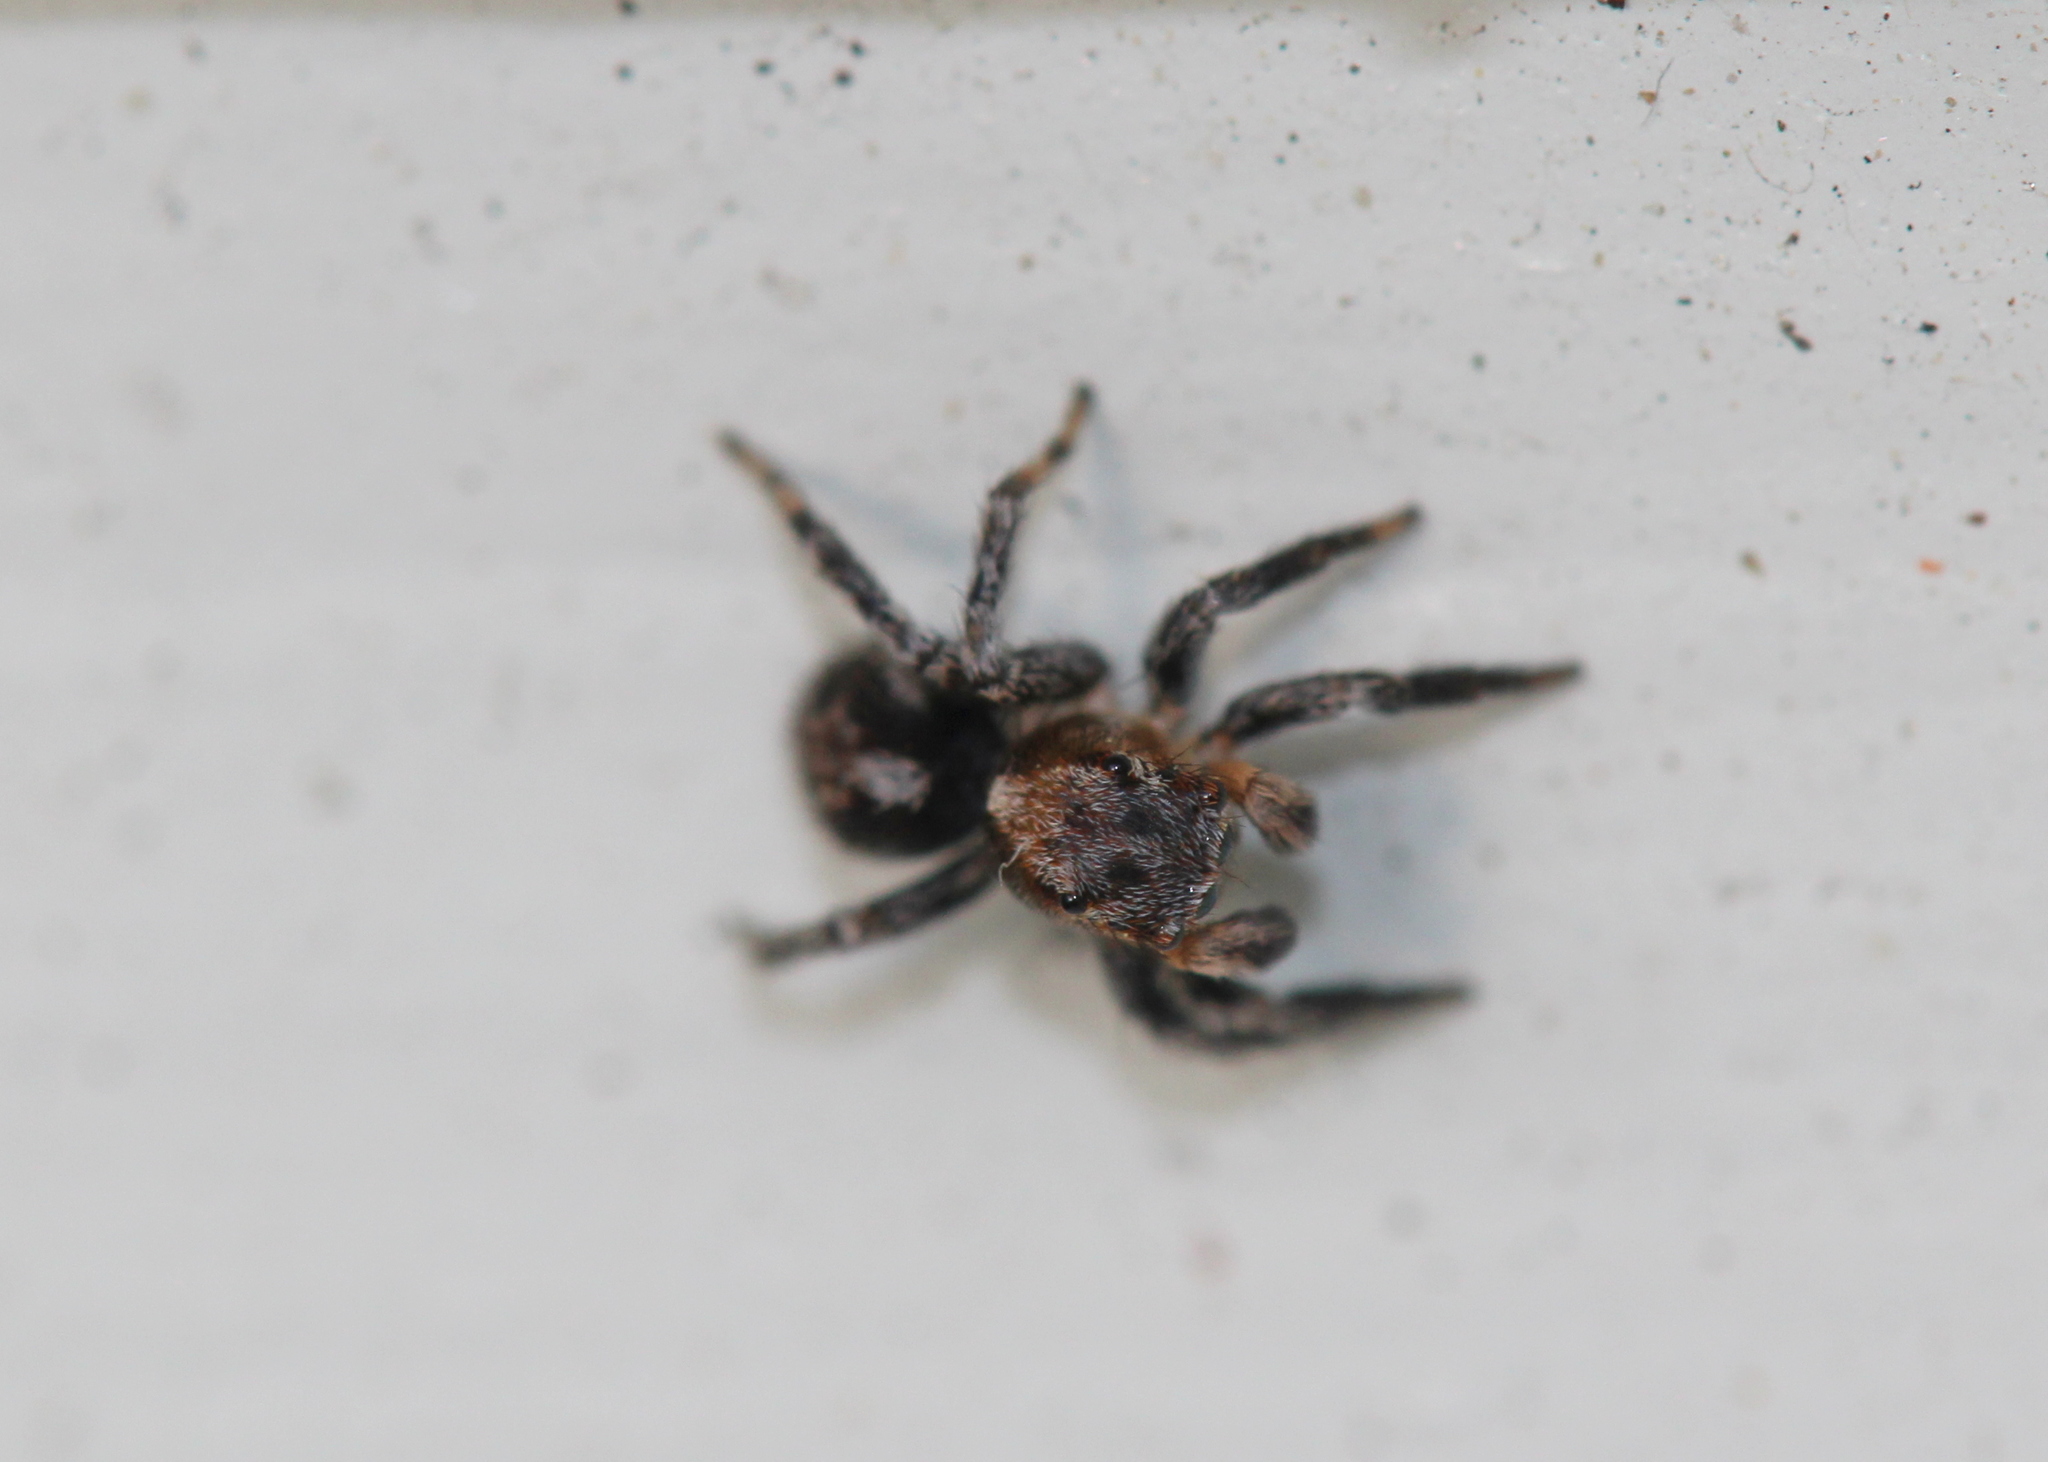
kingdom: Animalia
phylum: Arthropoda
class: Arachnida
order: Araneae
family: Salticidae
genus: Naphrys
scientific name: Naphrys pulex
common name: Flea jumping spider
